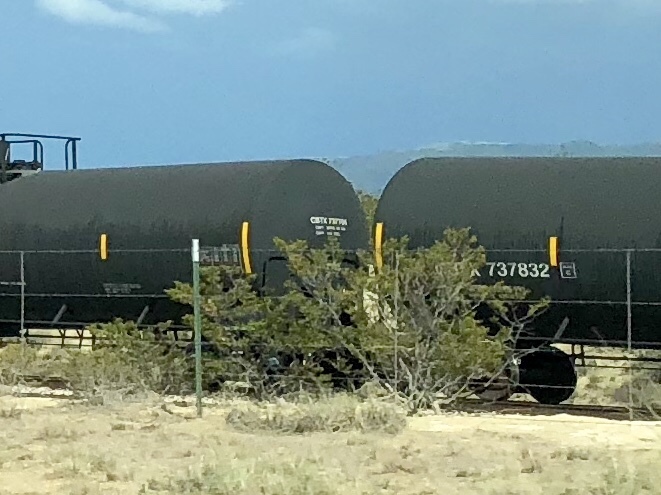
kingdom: Plantae
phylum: Tracheophyta
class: Magnoliopsida
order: Zygophyllales
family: Zygophyllaceae
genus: Larrea
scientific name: Larrea tridentata
